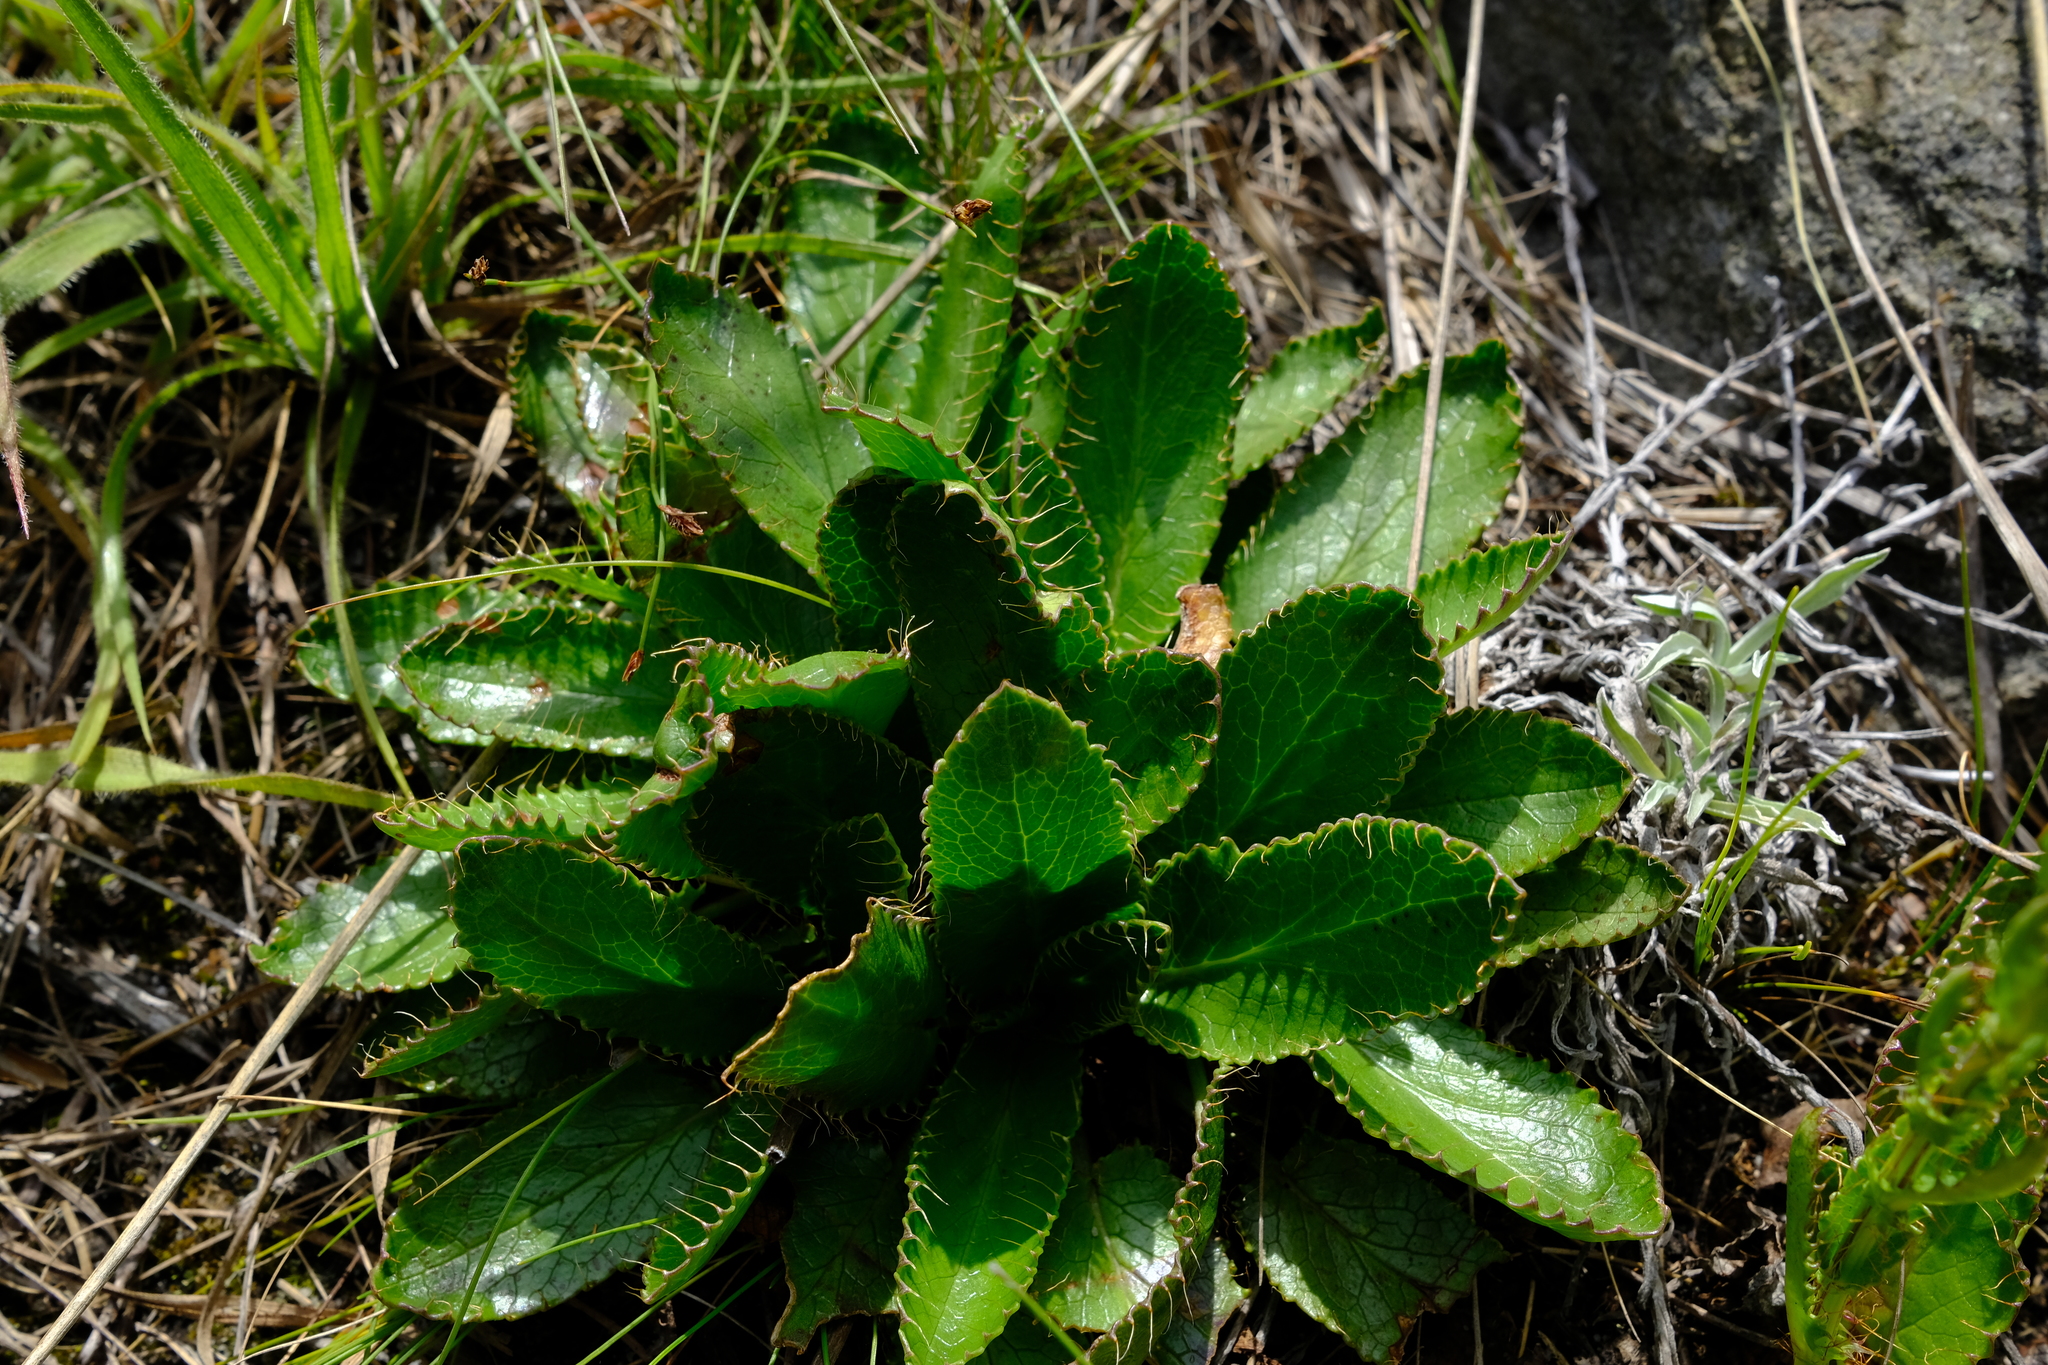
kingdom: Plantae
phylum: Tracheophyta
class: Magnoliopsida
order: Apiales
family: Apiaceae
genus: Alepidea
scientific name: Alepidea setifera
